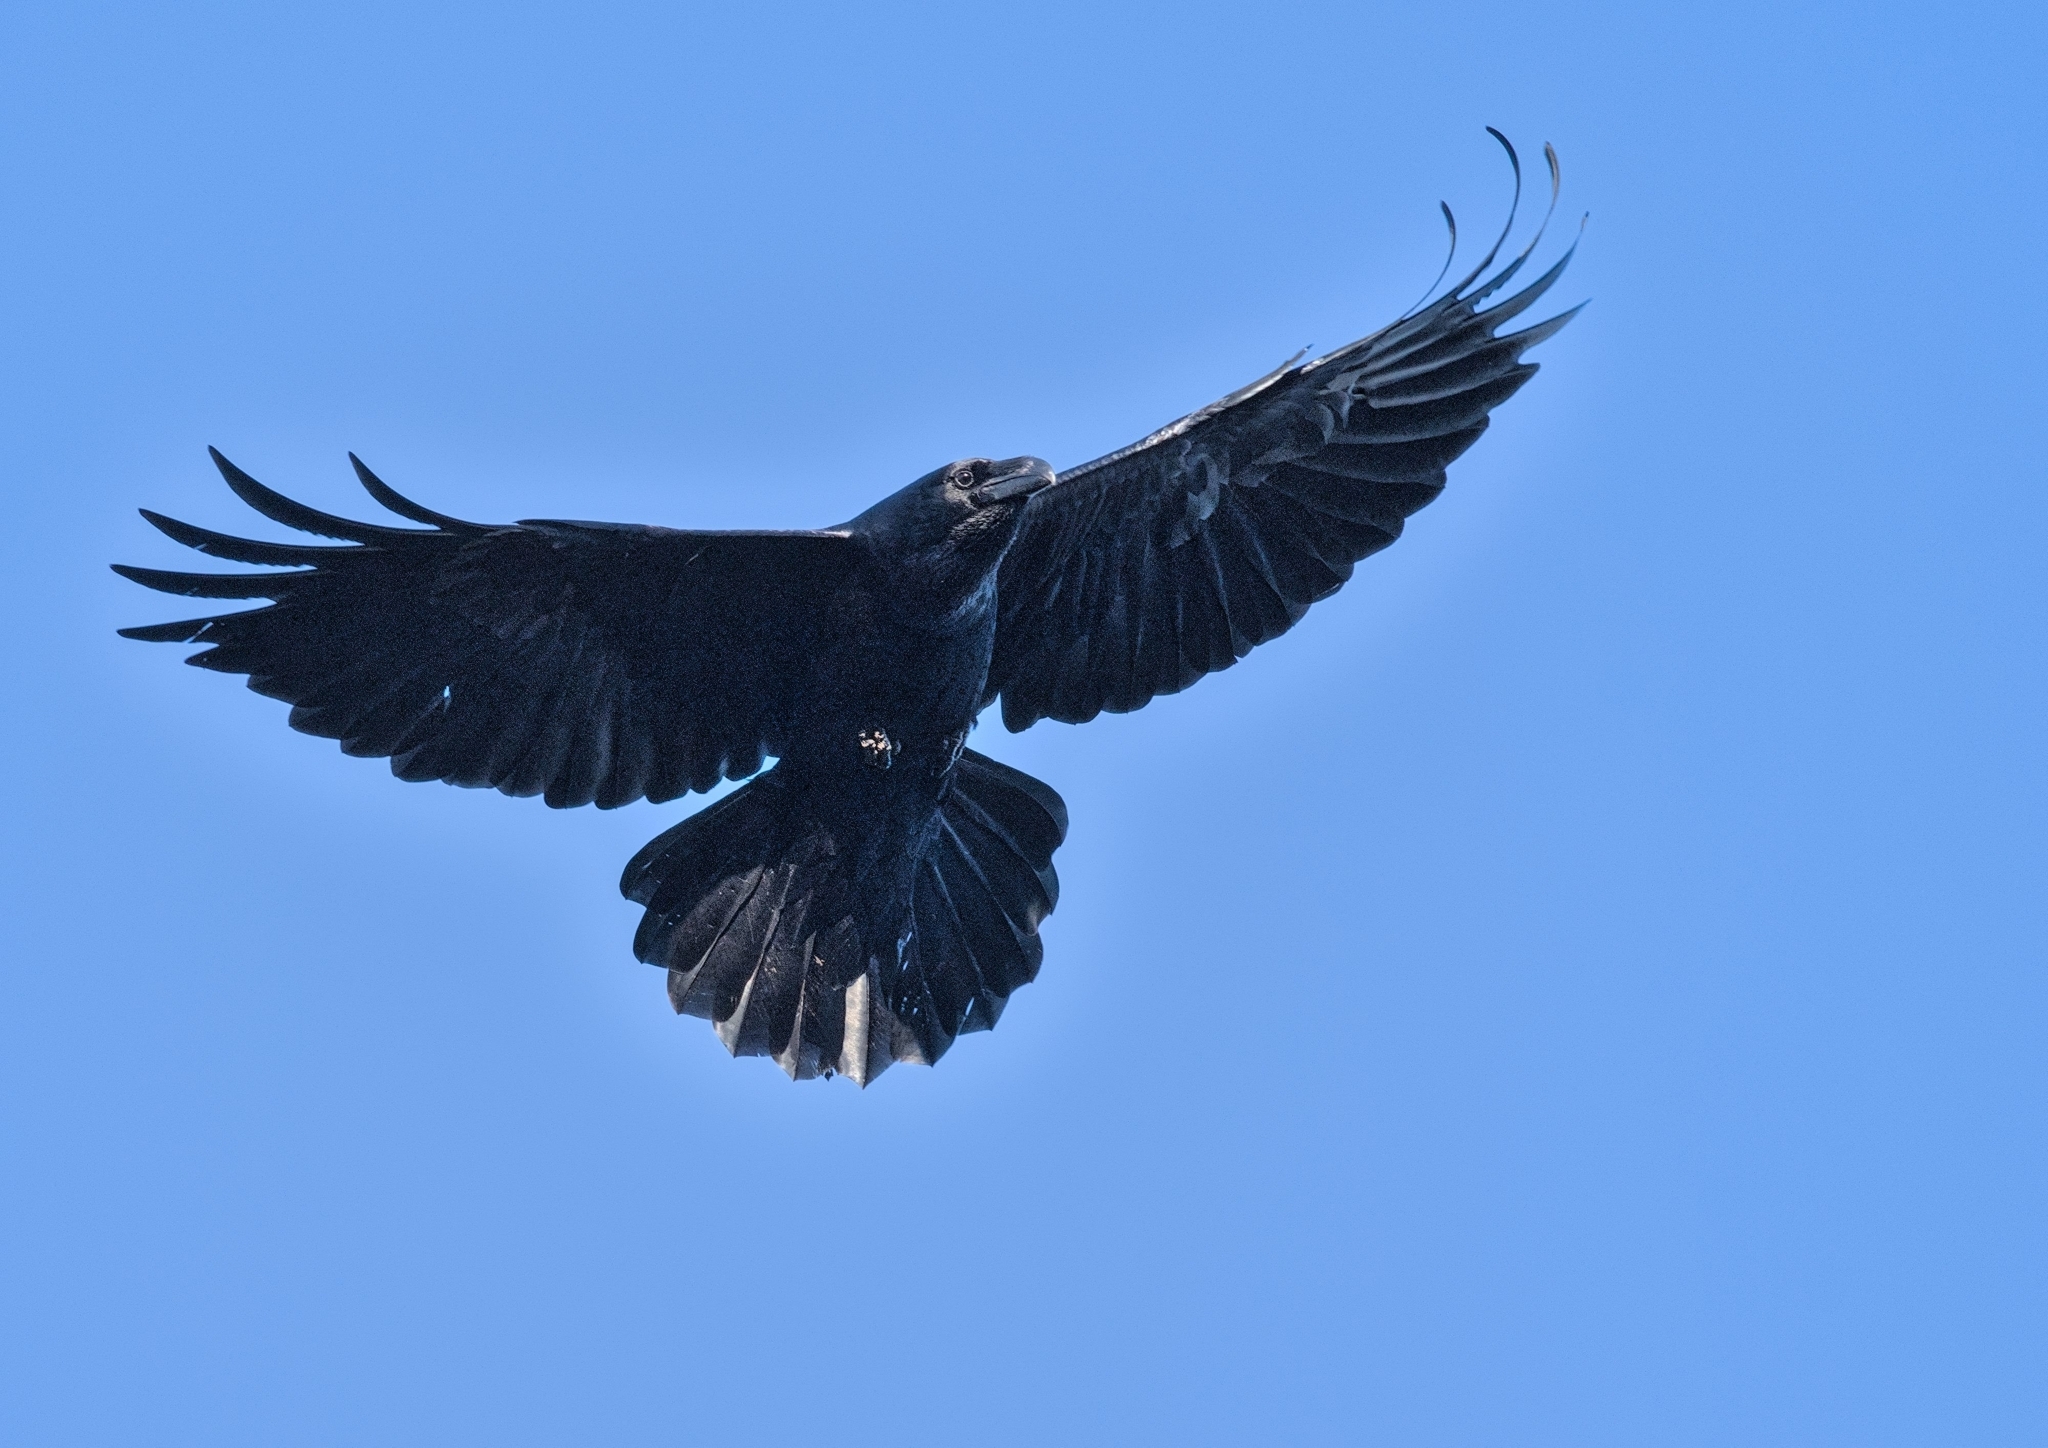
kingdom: Animalia
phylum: Chordata
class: Aves
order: Passeriformes
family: Corvidae
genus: Corvus
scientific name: Corvus corax
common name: Common raven
